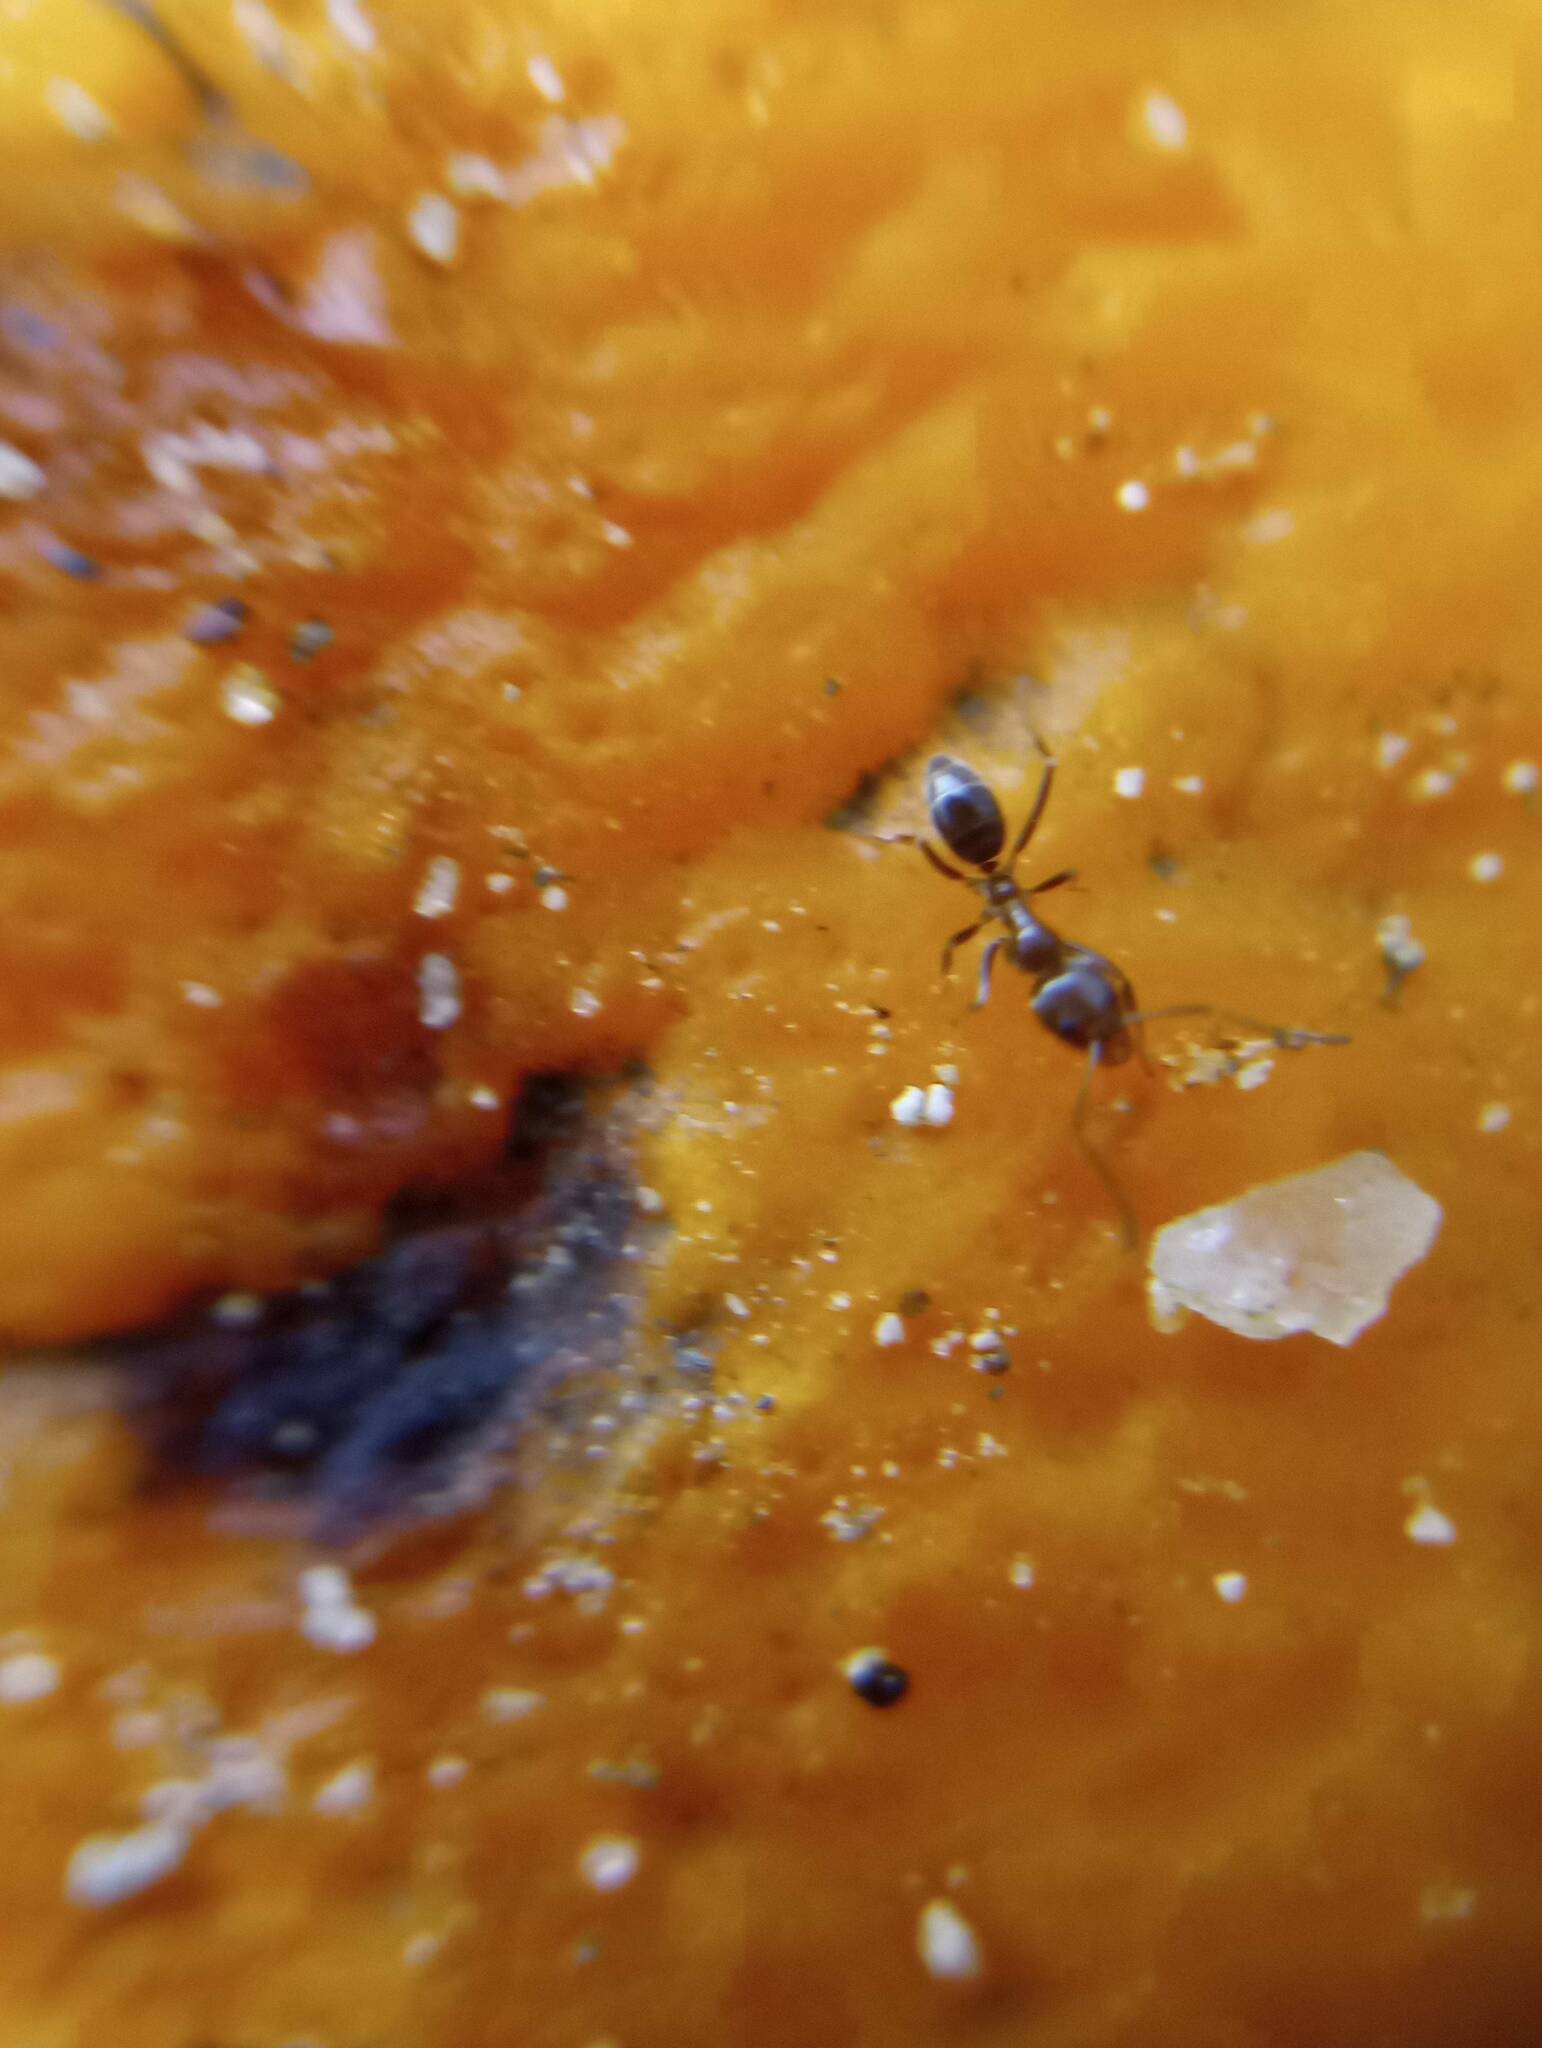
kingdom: Animalia
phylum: Arthropoda
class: Insecta
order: Hymenoptera
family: Formicidae
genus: Linepithema
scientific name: Linepithema humile
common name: Argentine ant
